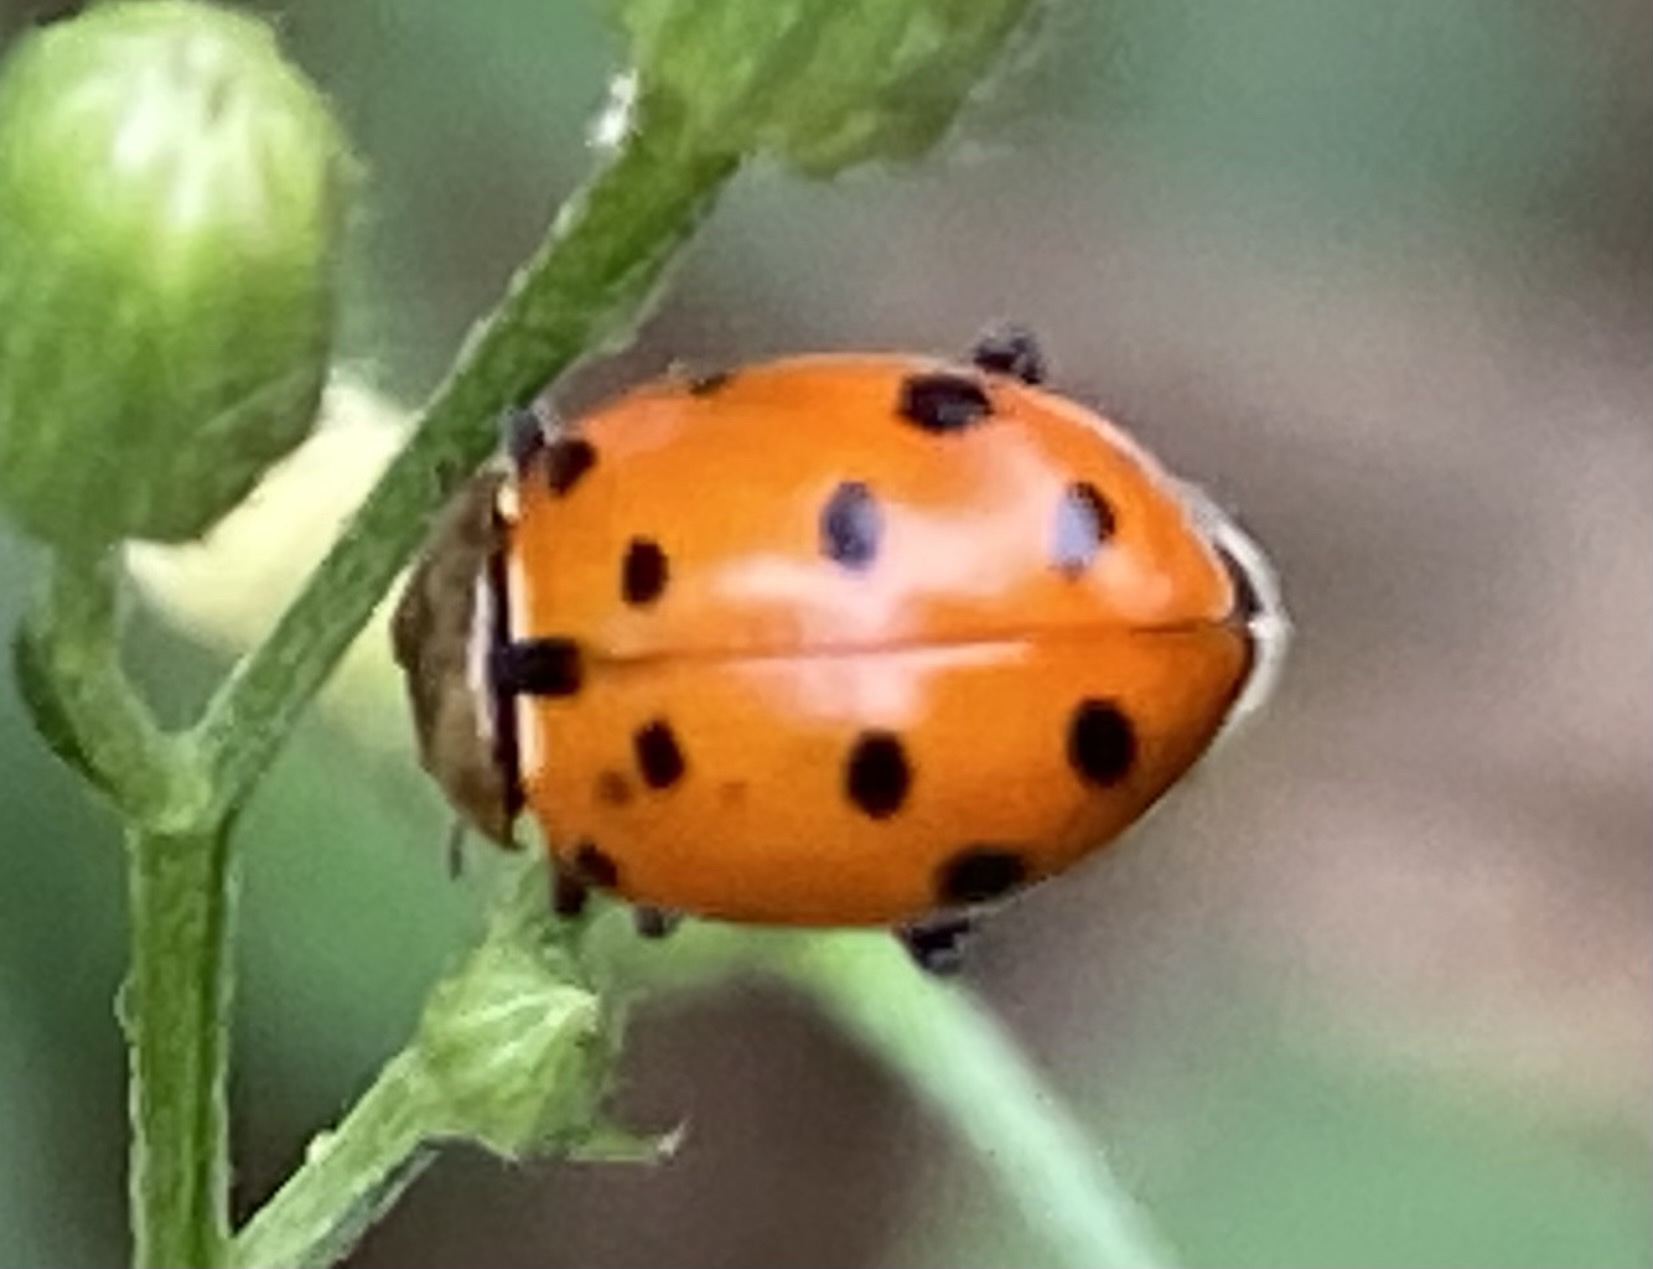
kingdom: Animalia
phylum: Arthropoda
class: Insecta
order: Coleoptera
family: Coccinellidae
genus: Hippodamia
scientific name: Hippodamia convergens
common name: Convergent lady beetle
